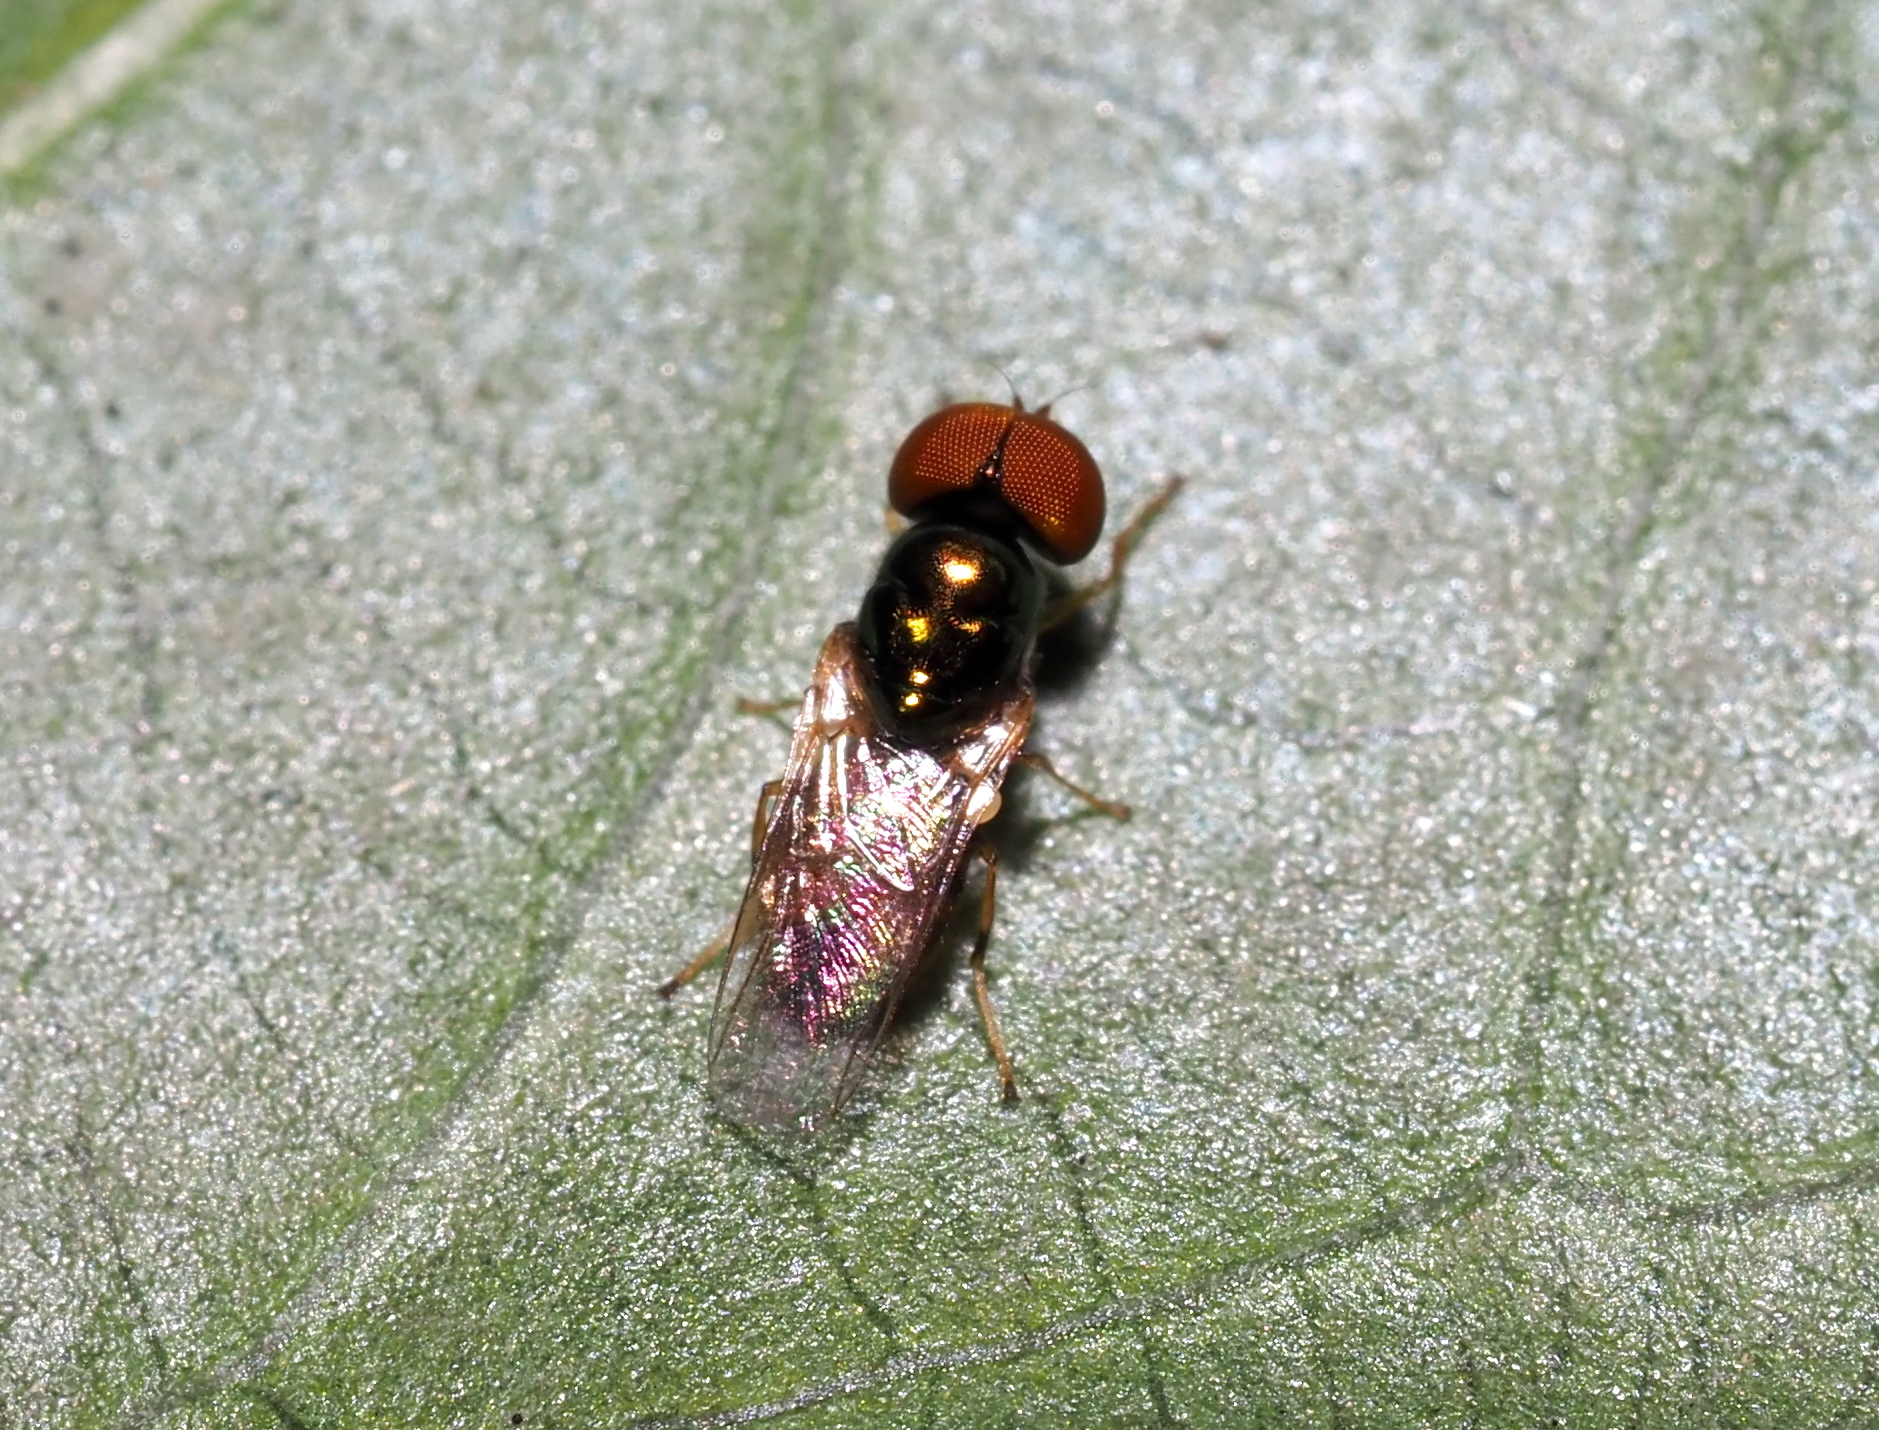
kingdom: Animalia
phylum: Arthropoda
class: Insecta
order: Diptera
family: Stratiomyidae
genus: Microchrysa
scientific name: Microchrysa flaviventris
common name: Soldier fly
